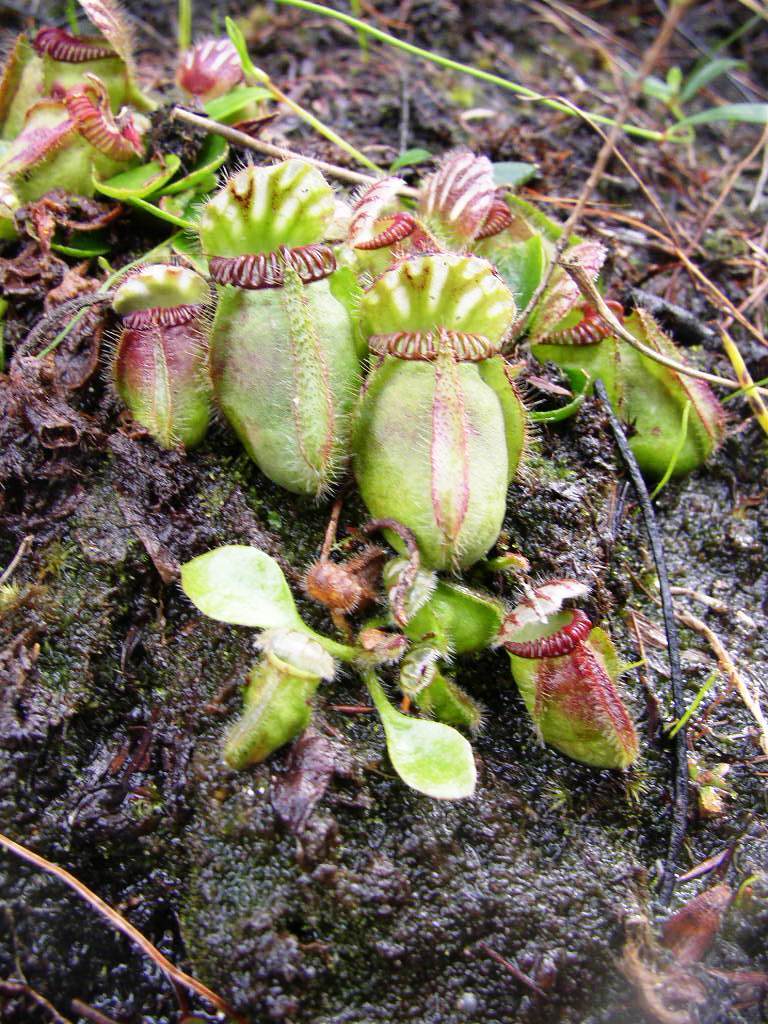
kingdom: Plantae
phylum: Tracheophyta
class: Magnoliopsida
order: Oxalidales
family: Cephalotaceae
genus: Cephalotus
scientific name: Cephalotus follicularis
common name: Australian pitcher plant
